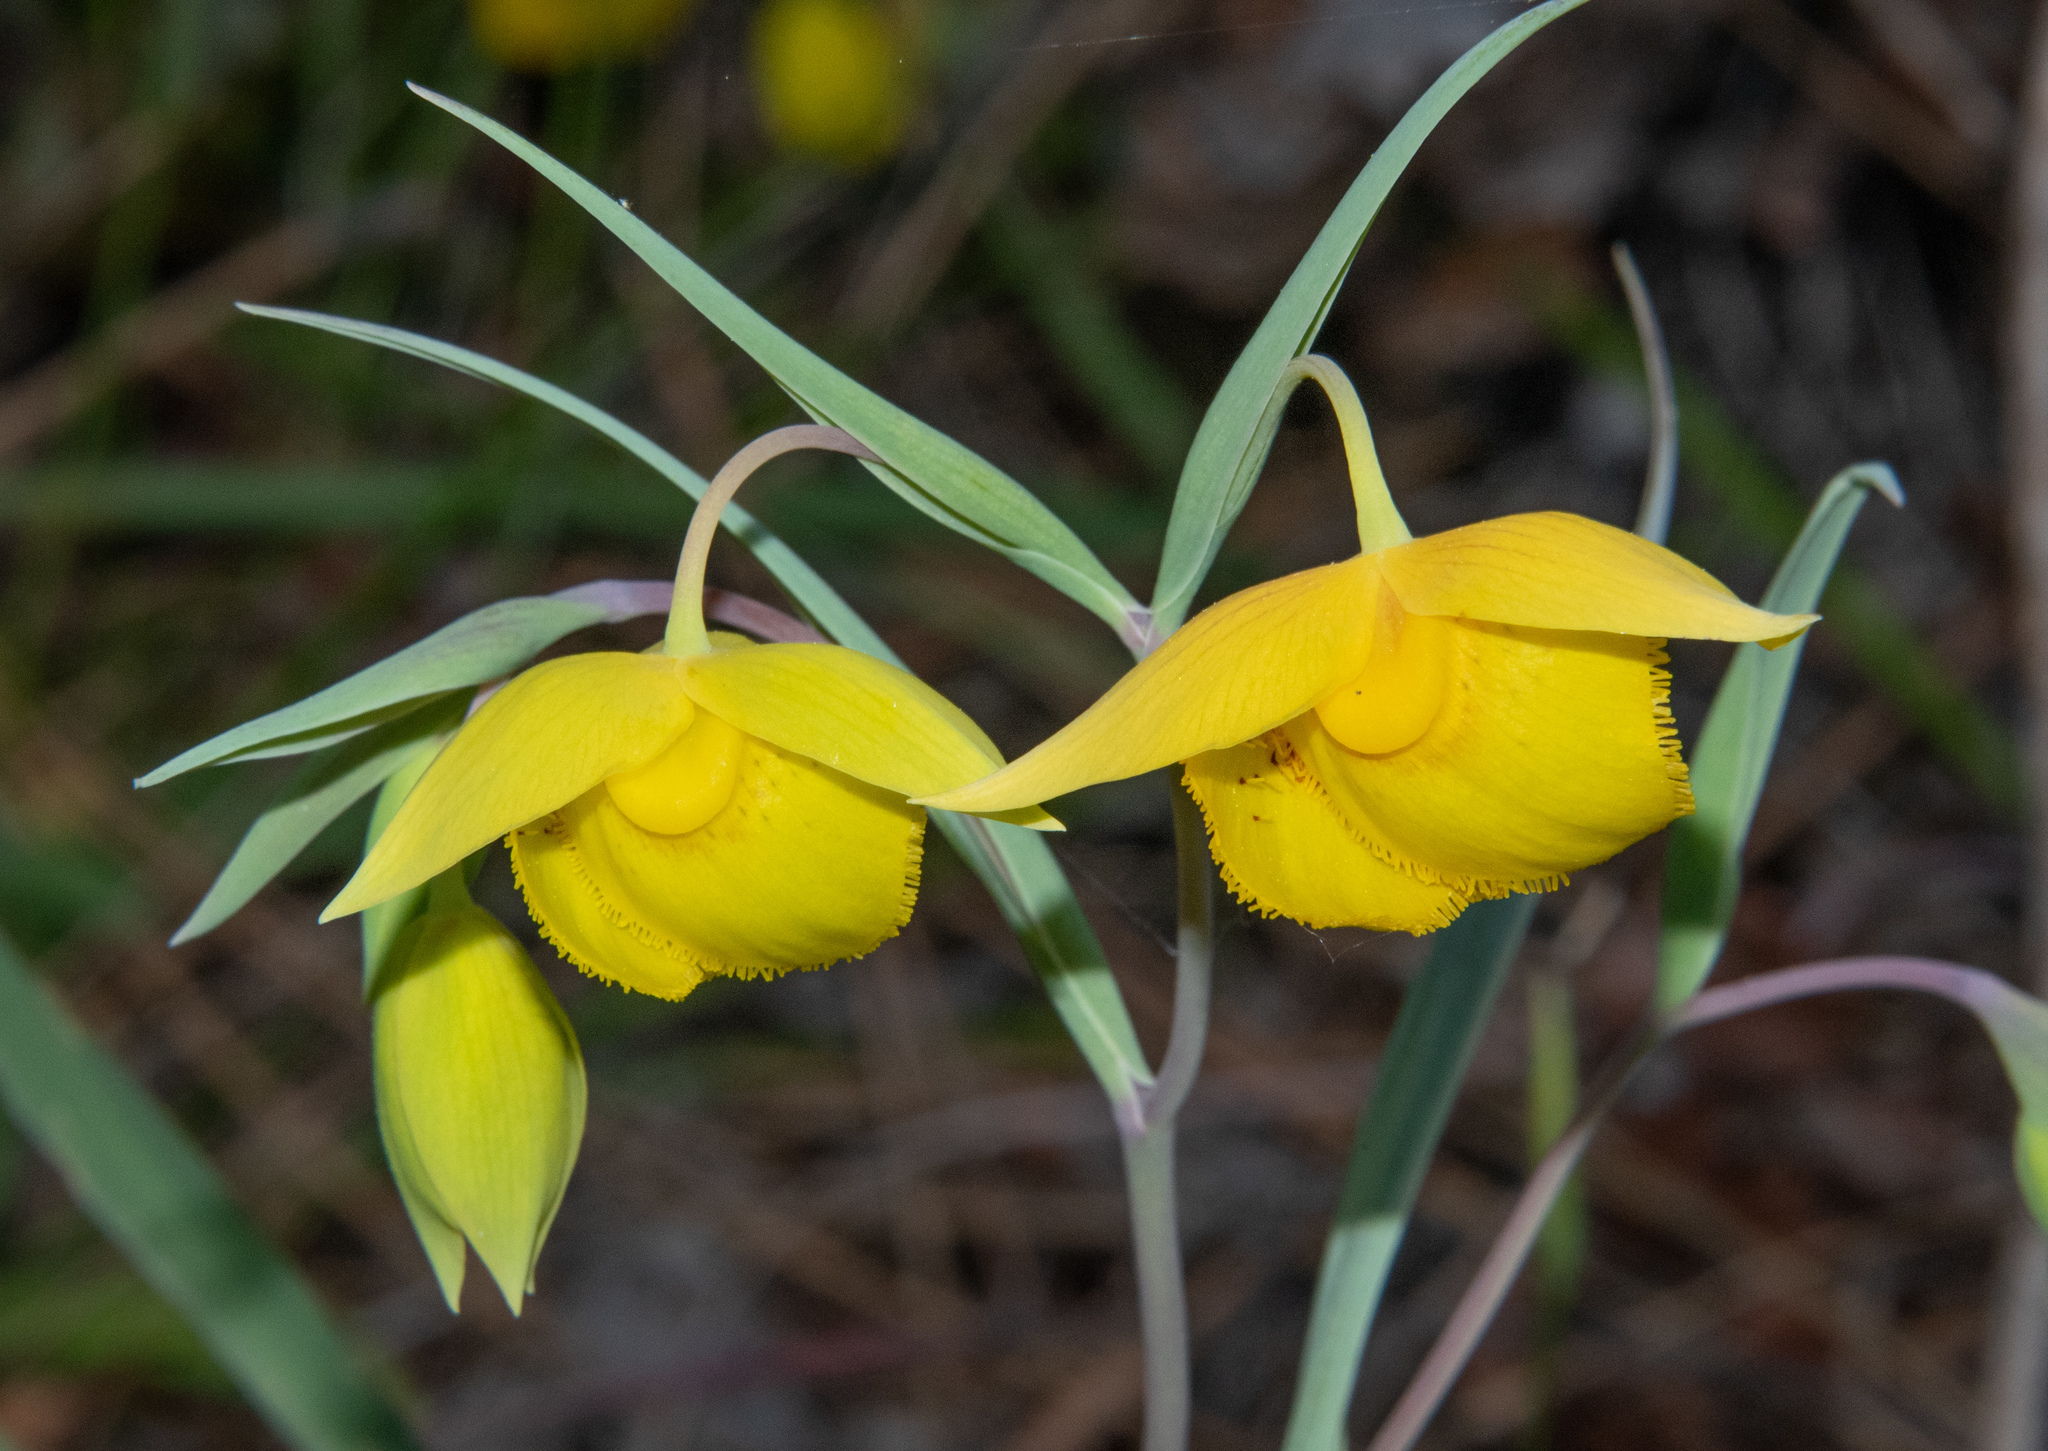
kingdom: Plantae
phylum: Tracheophyta
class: Liliopsida
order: Liliales
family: Liliaceae
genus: Calochortus
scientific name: Calochortus amabilis
